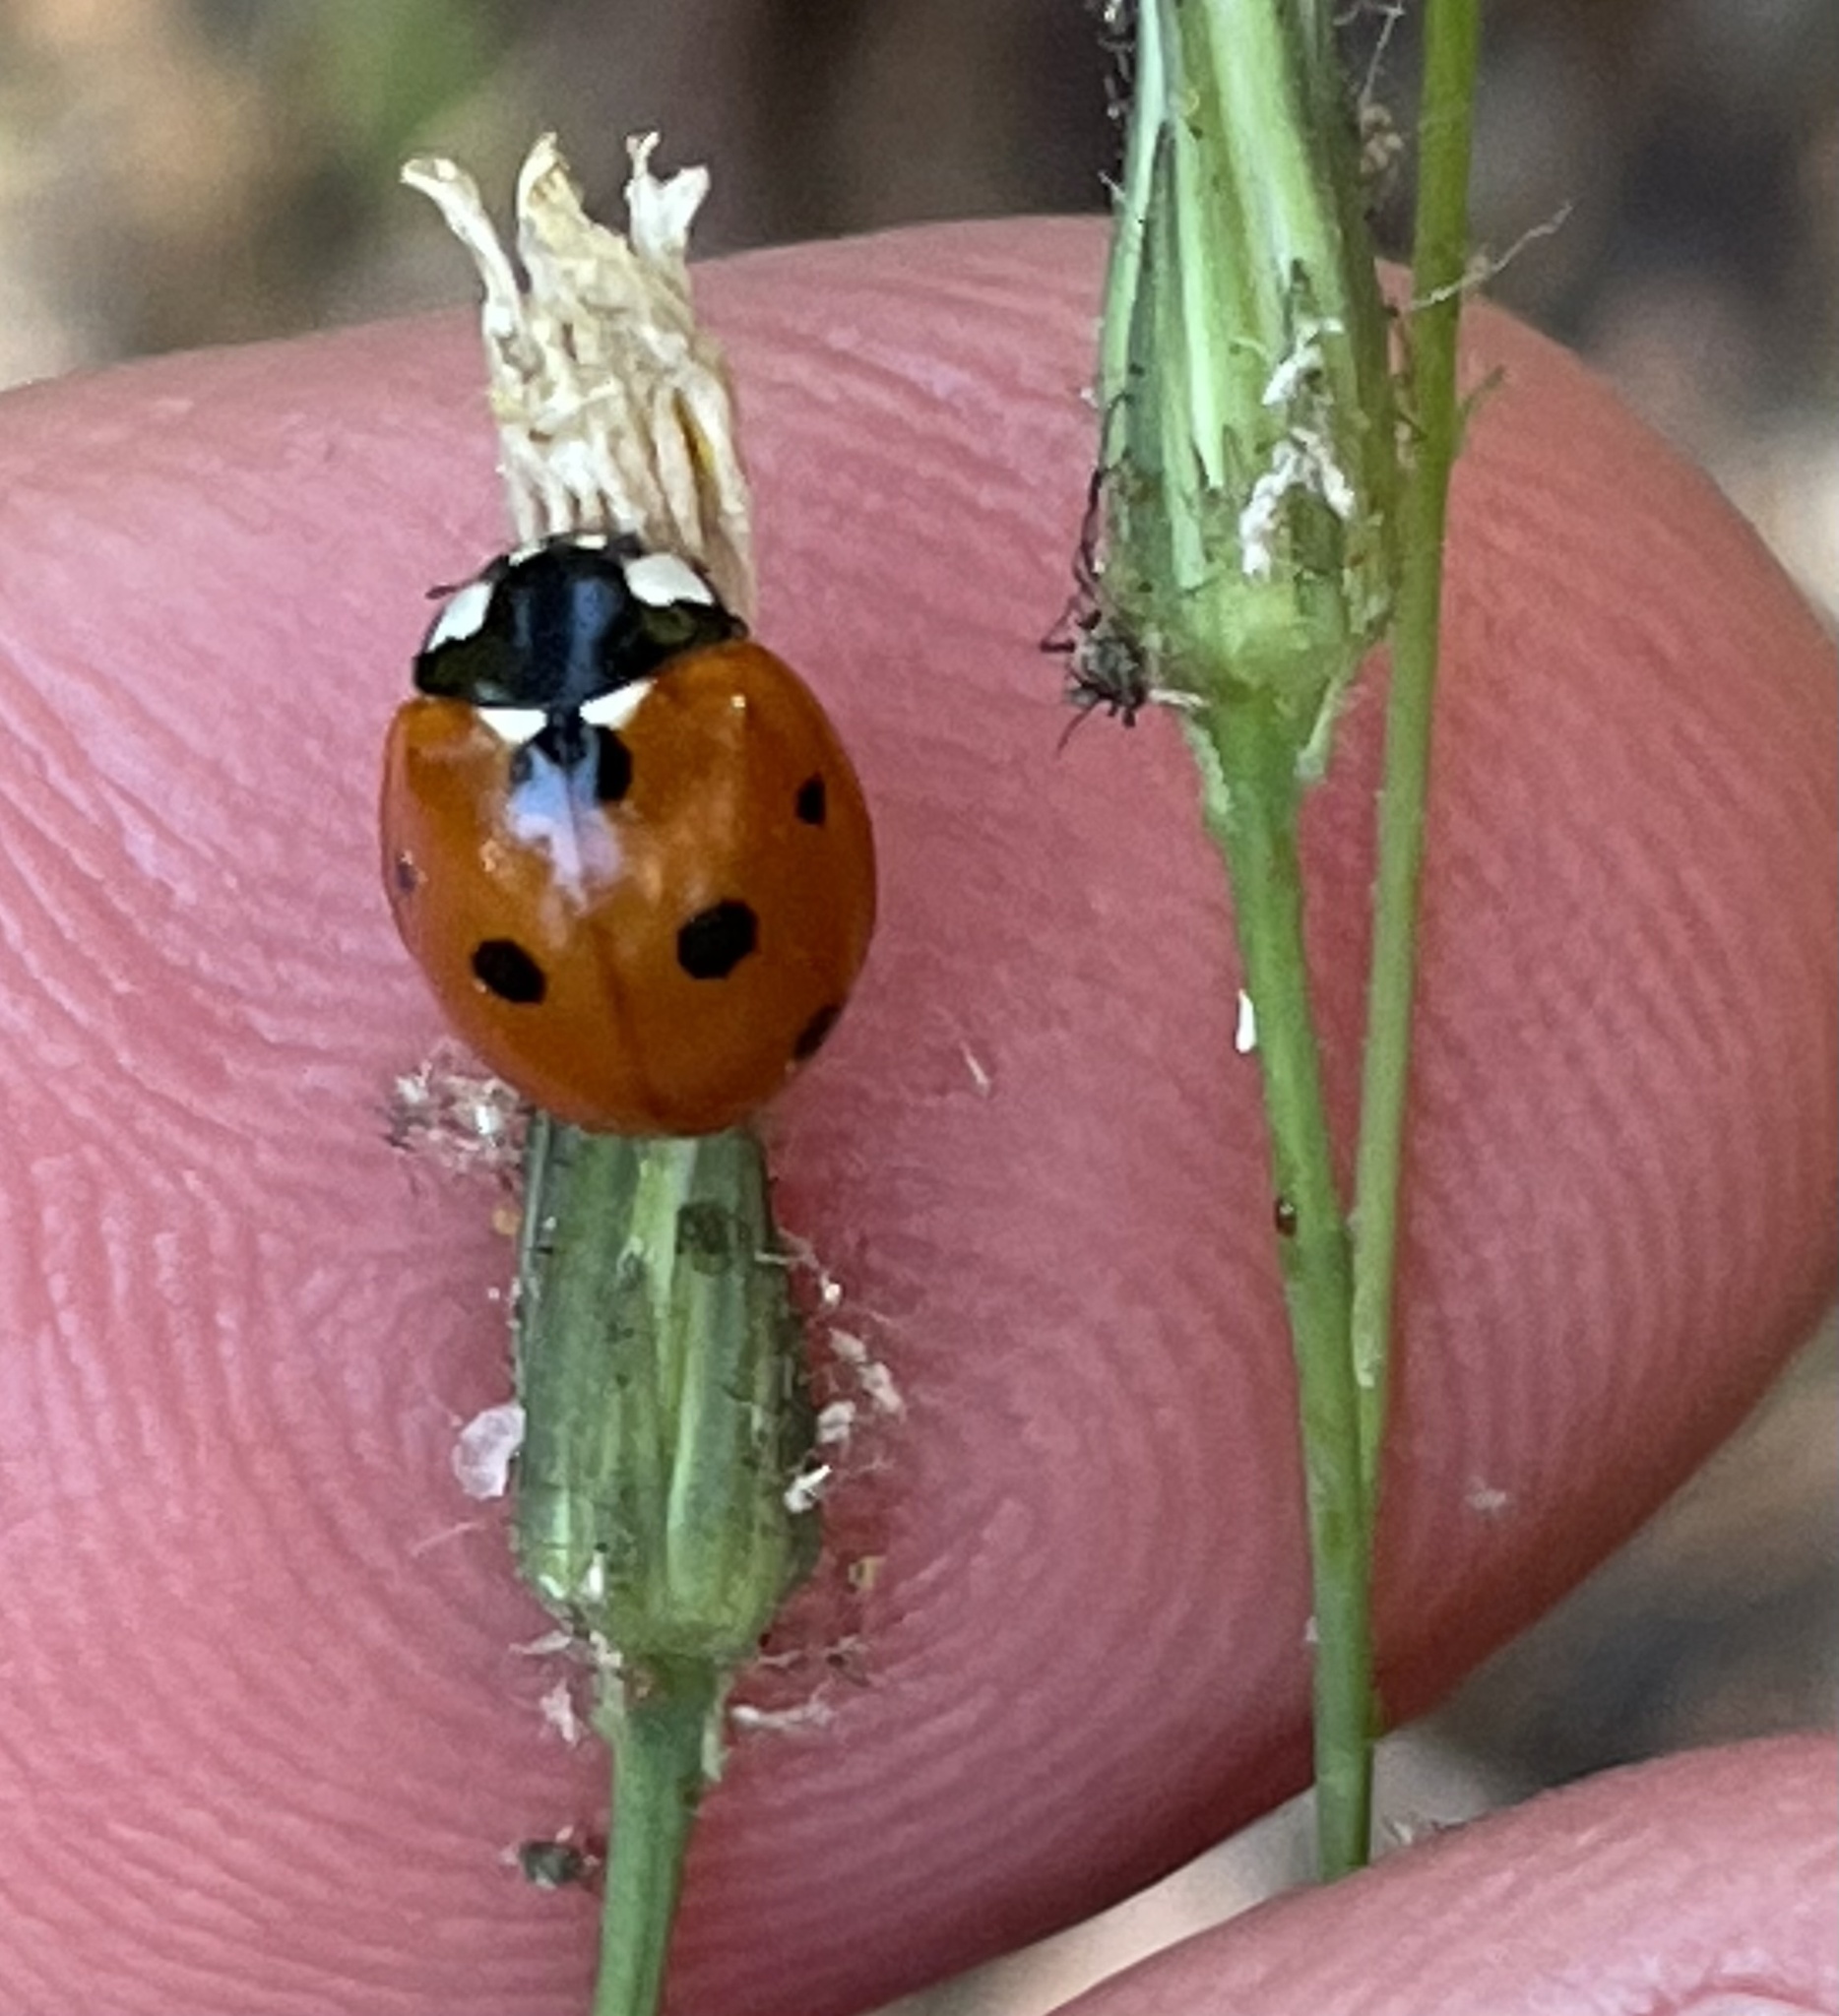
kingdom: Animalia
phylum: Arthropoda
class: Insecta
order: Coleoptera
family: Coccinellidae
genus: Coccinella
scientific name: Coccinella septempunctata
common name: Sevenspotted lady beetle
